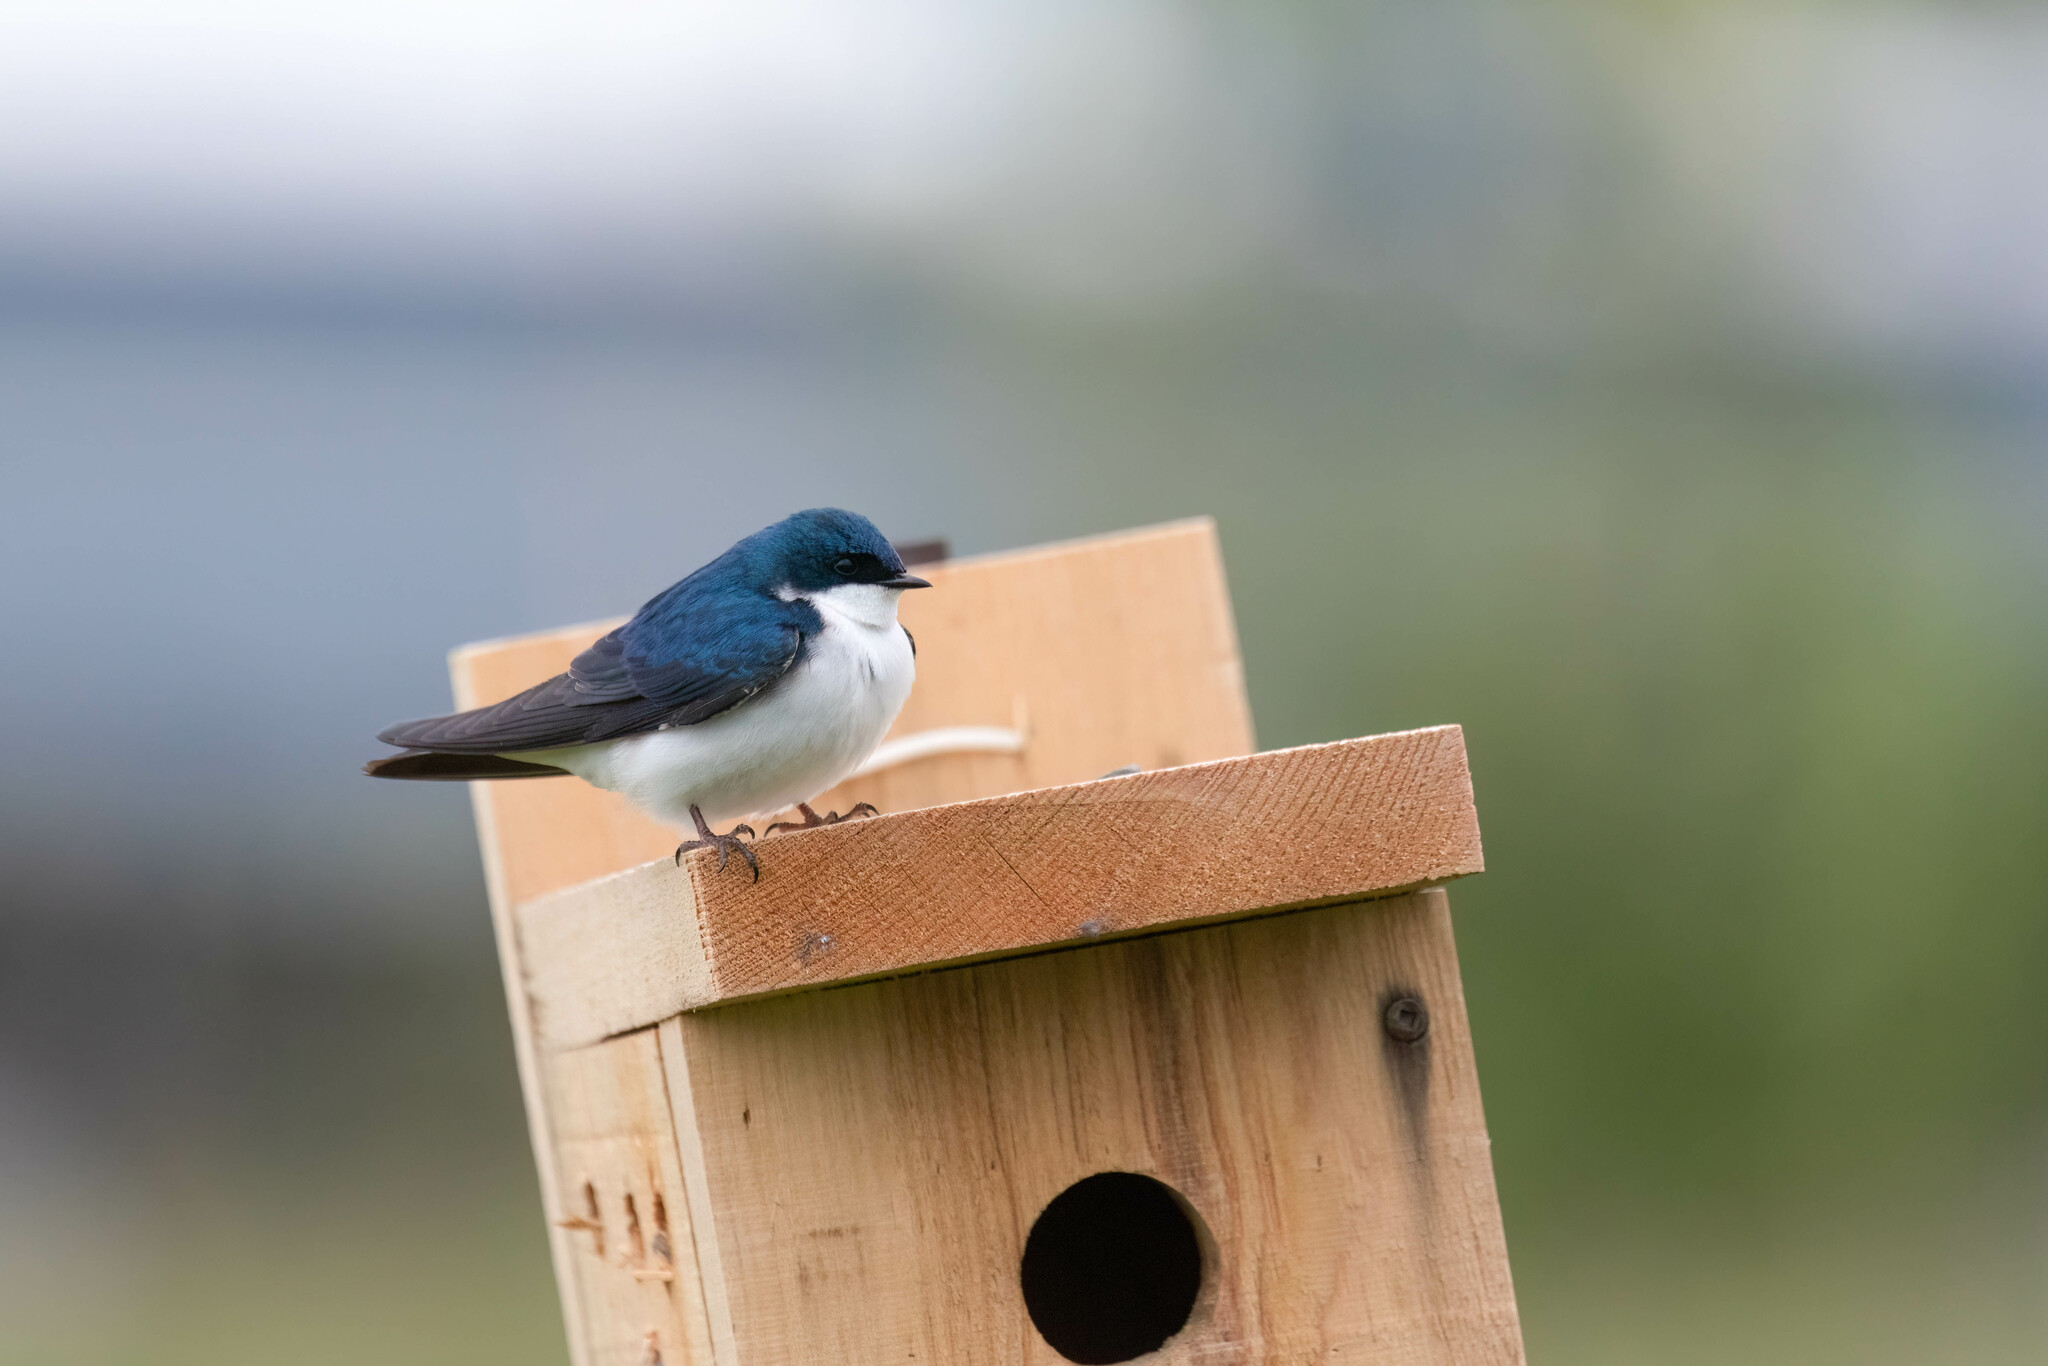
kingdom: Animalia
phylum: Chordata
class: Aves
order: Passeriformes
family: Hirundinidae
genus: Tachycineta
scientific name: Tachycineta bicolor
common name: Tree swallow
